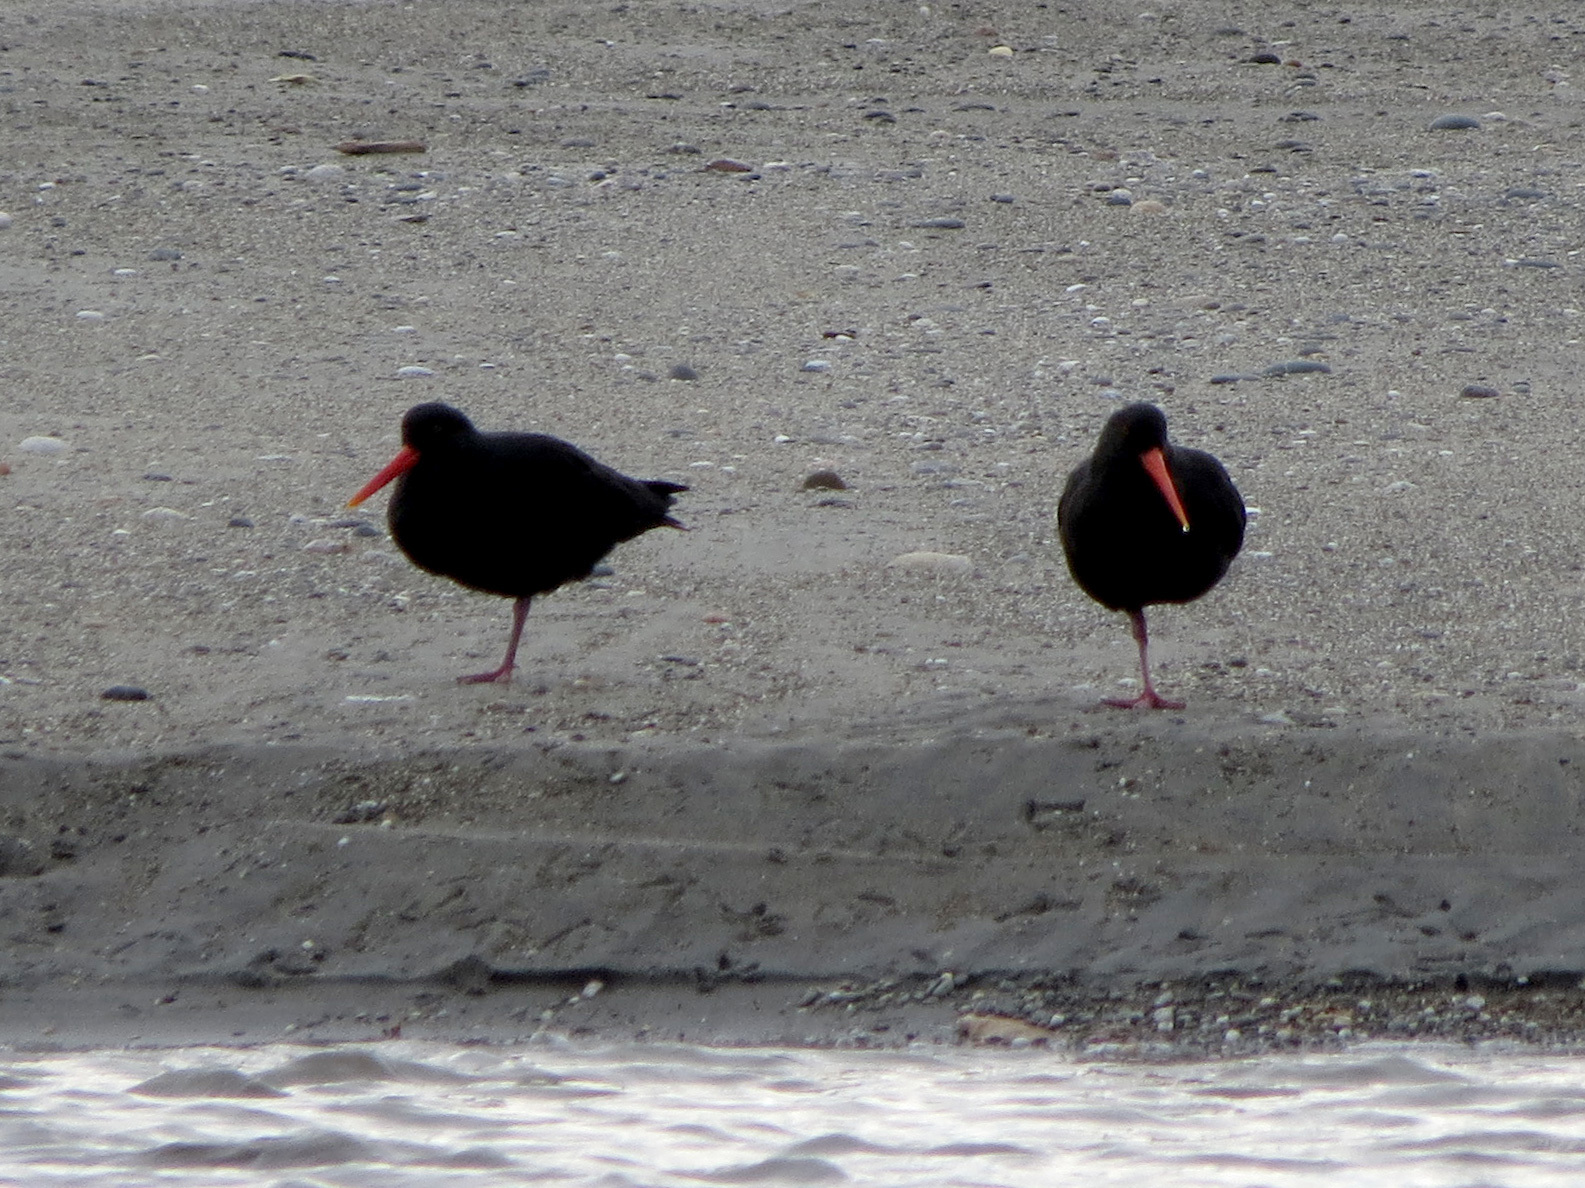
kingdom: Animalia
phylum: Chordata
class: Aves
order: Charadriiformes
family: Haematopodidae
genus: Haematopus
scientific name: Haematopus unicolor
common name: Variable oystercatcher
